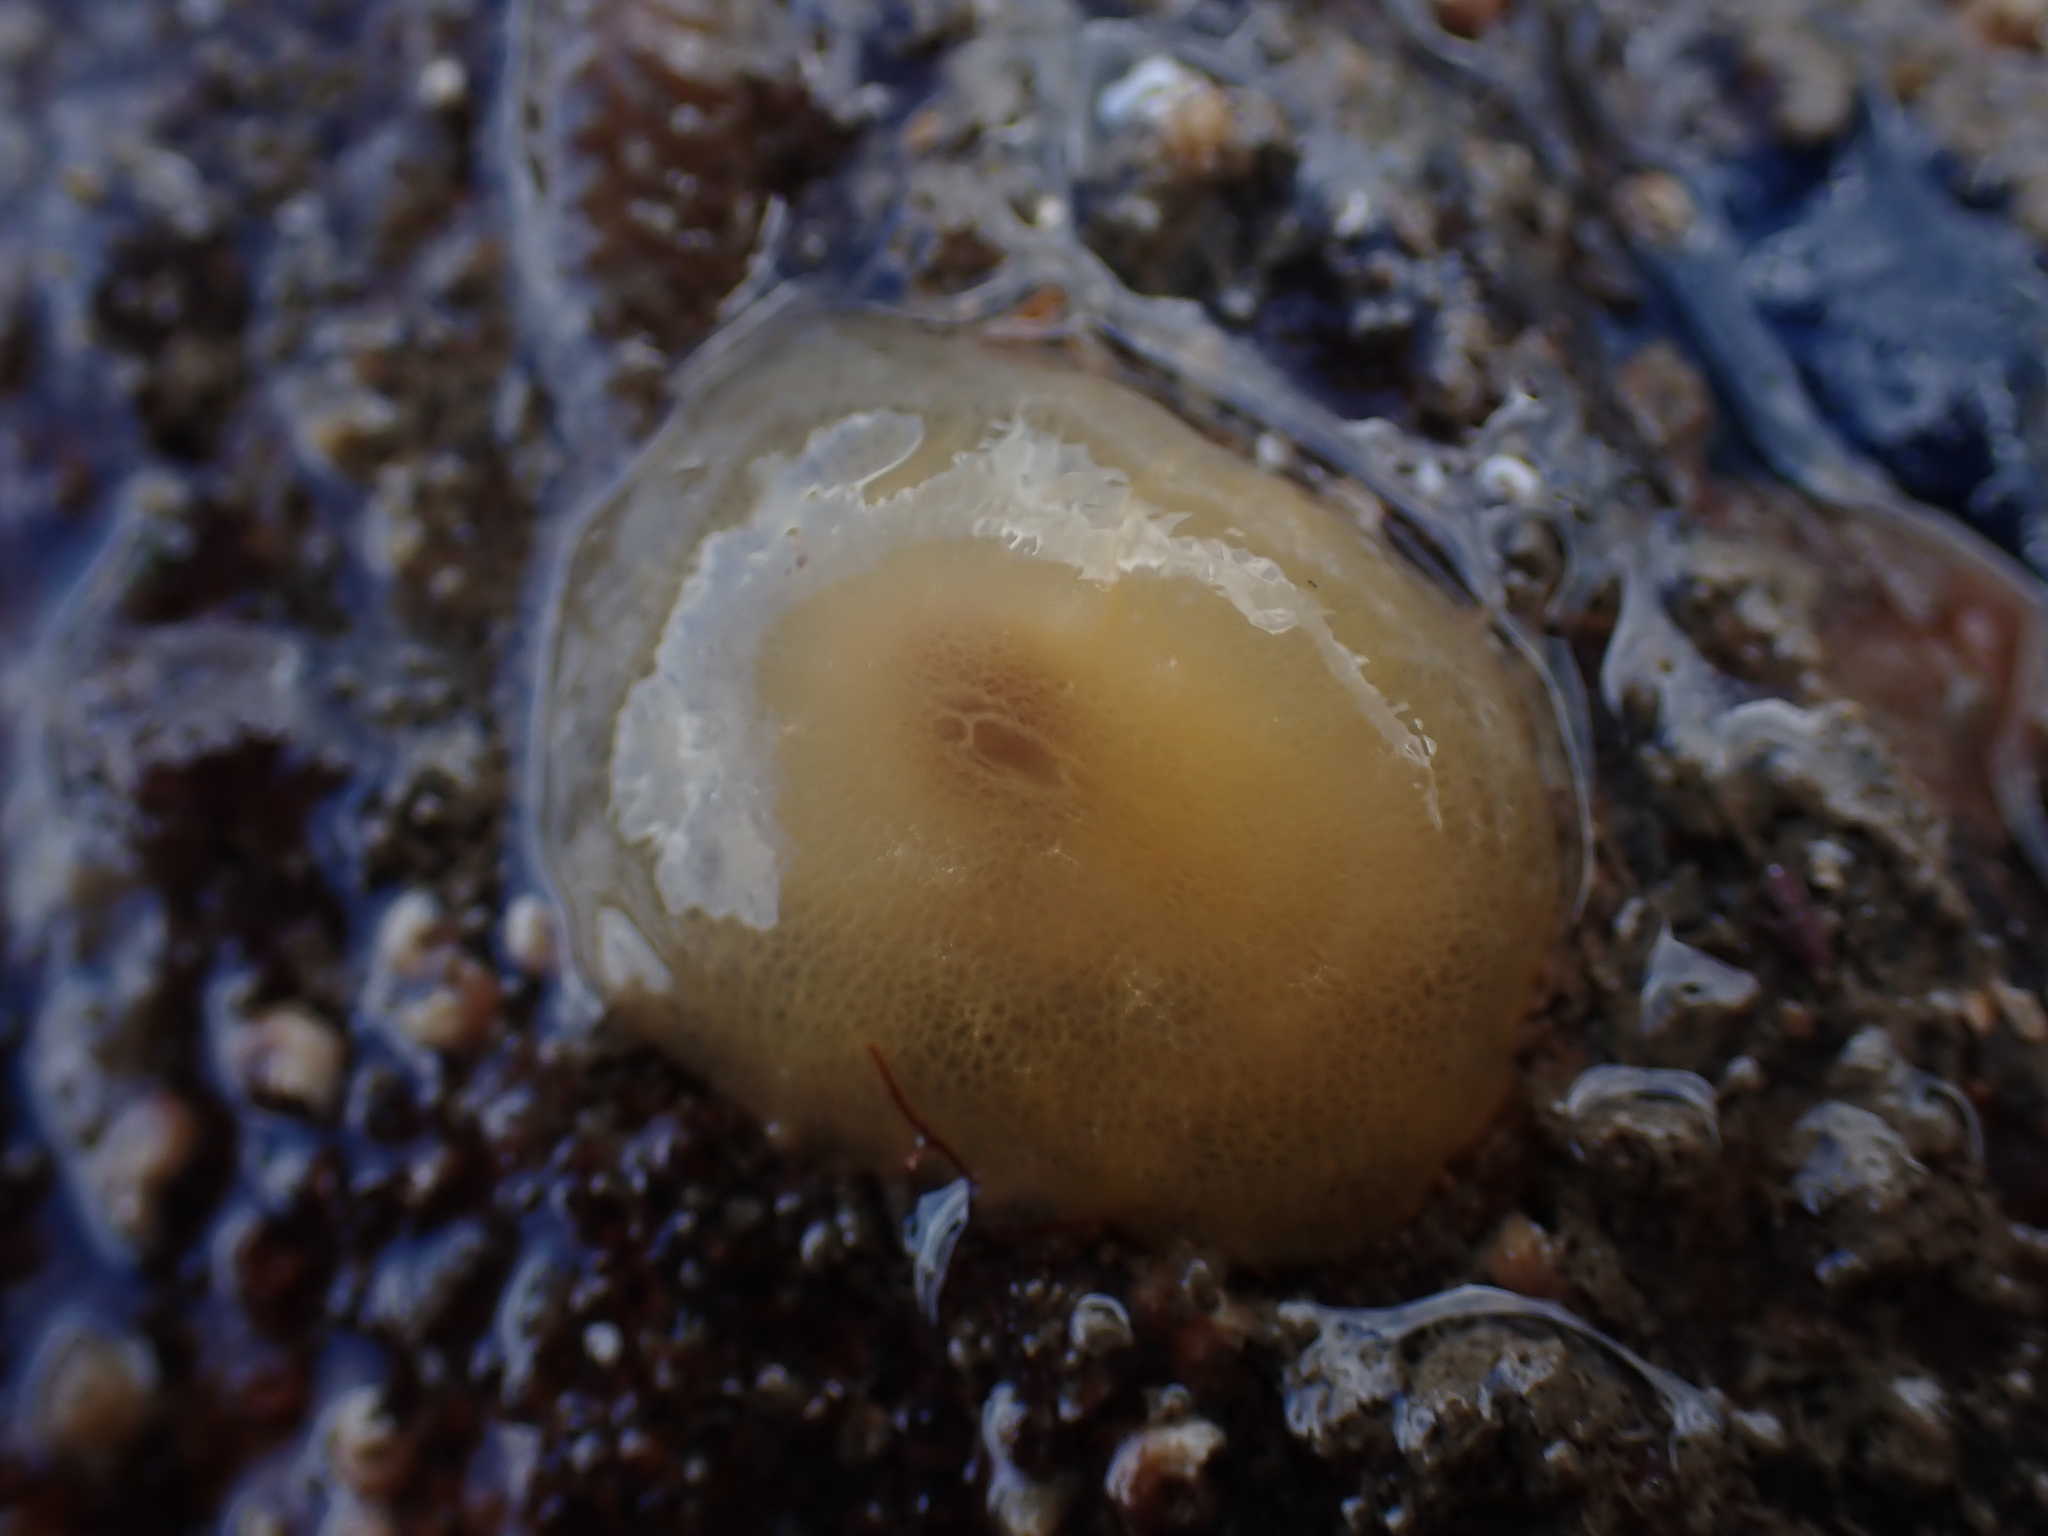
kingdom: Animalia
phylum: Mollusca
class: Gastropoda
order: Pleurobranchida
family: Pleurobranchidae
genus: Berthella
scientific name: Berthella plumula
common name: Yellow-plumed sea slug
